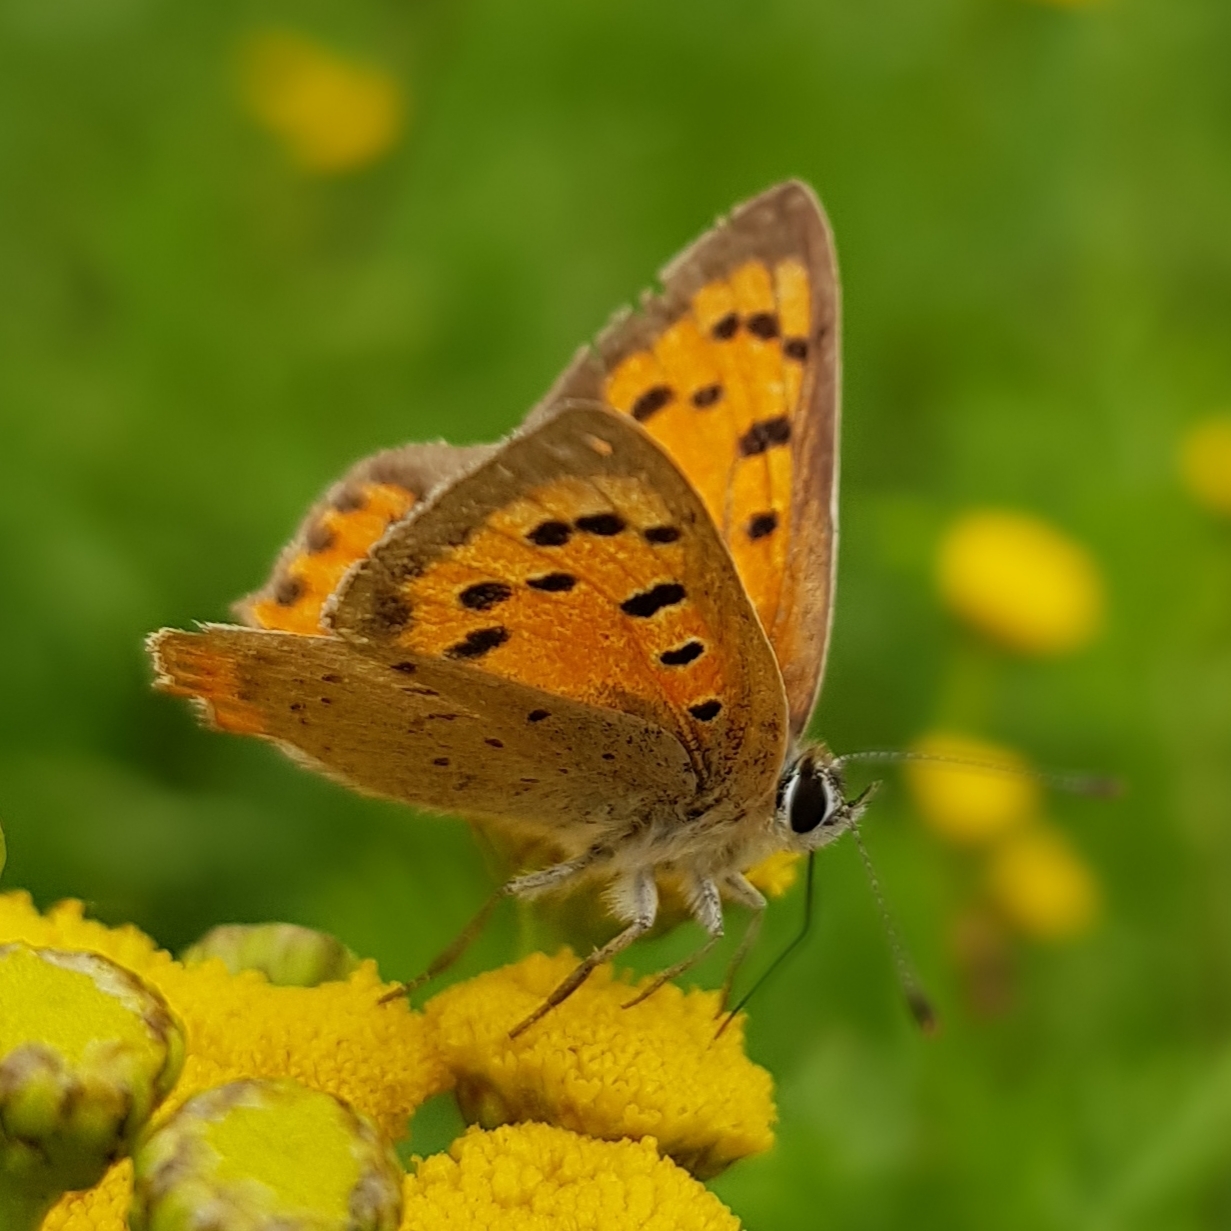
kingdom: Animalia
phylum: Arthropoda
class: Insecta
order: Lepidoptera
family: Lycaenidae
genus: Lycaena
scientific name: Lycaena phlaeas
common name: Small copper
